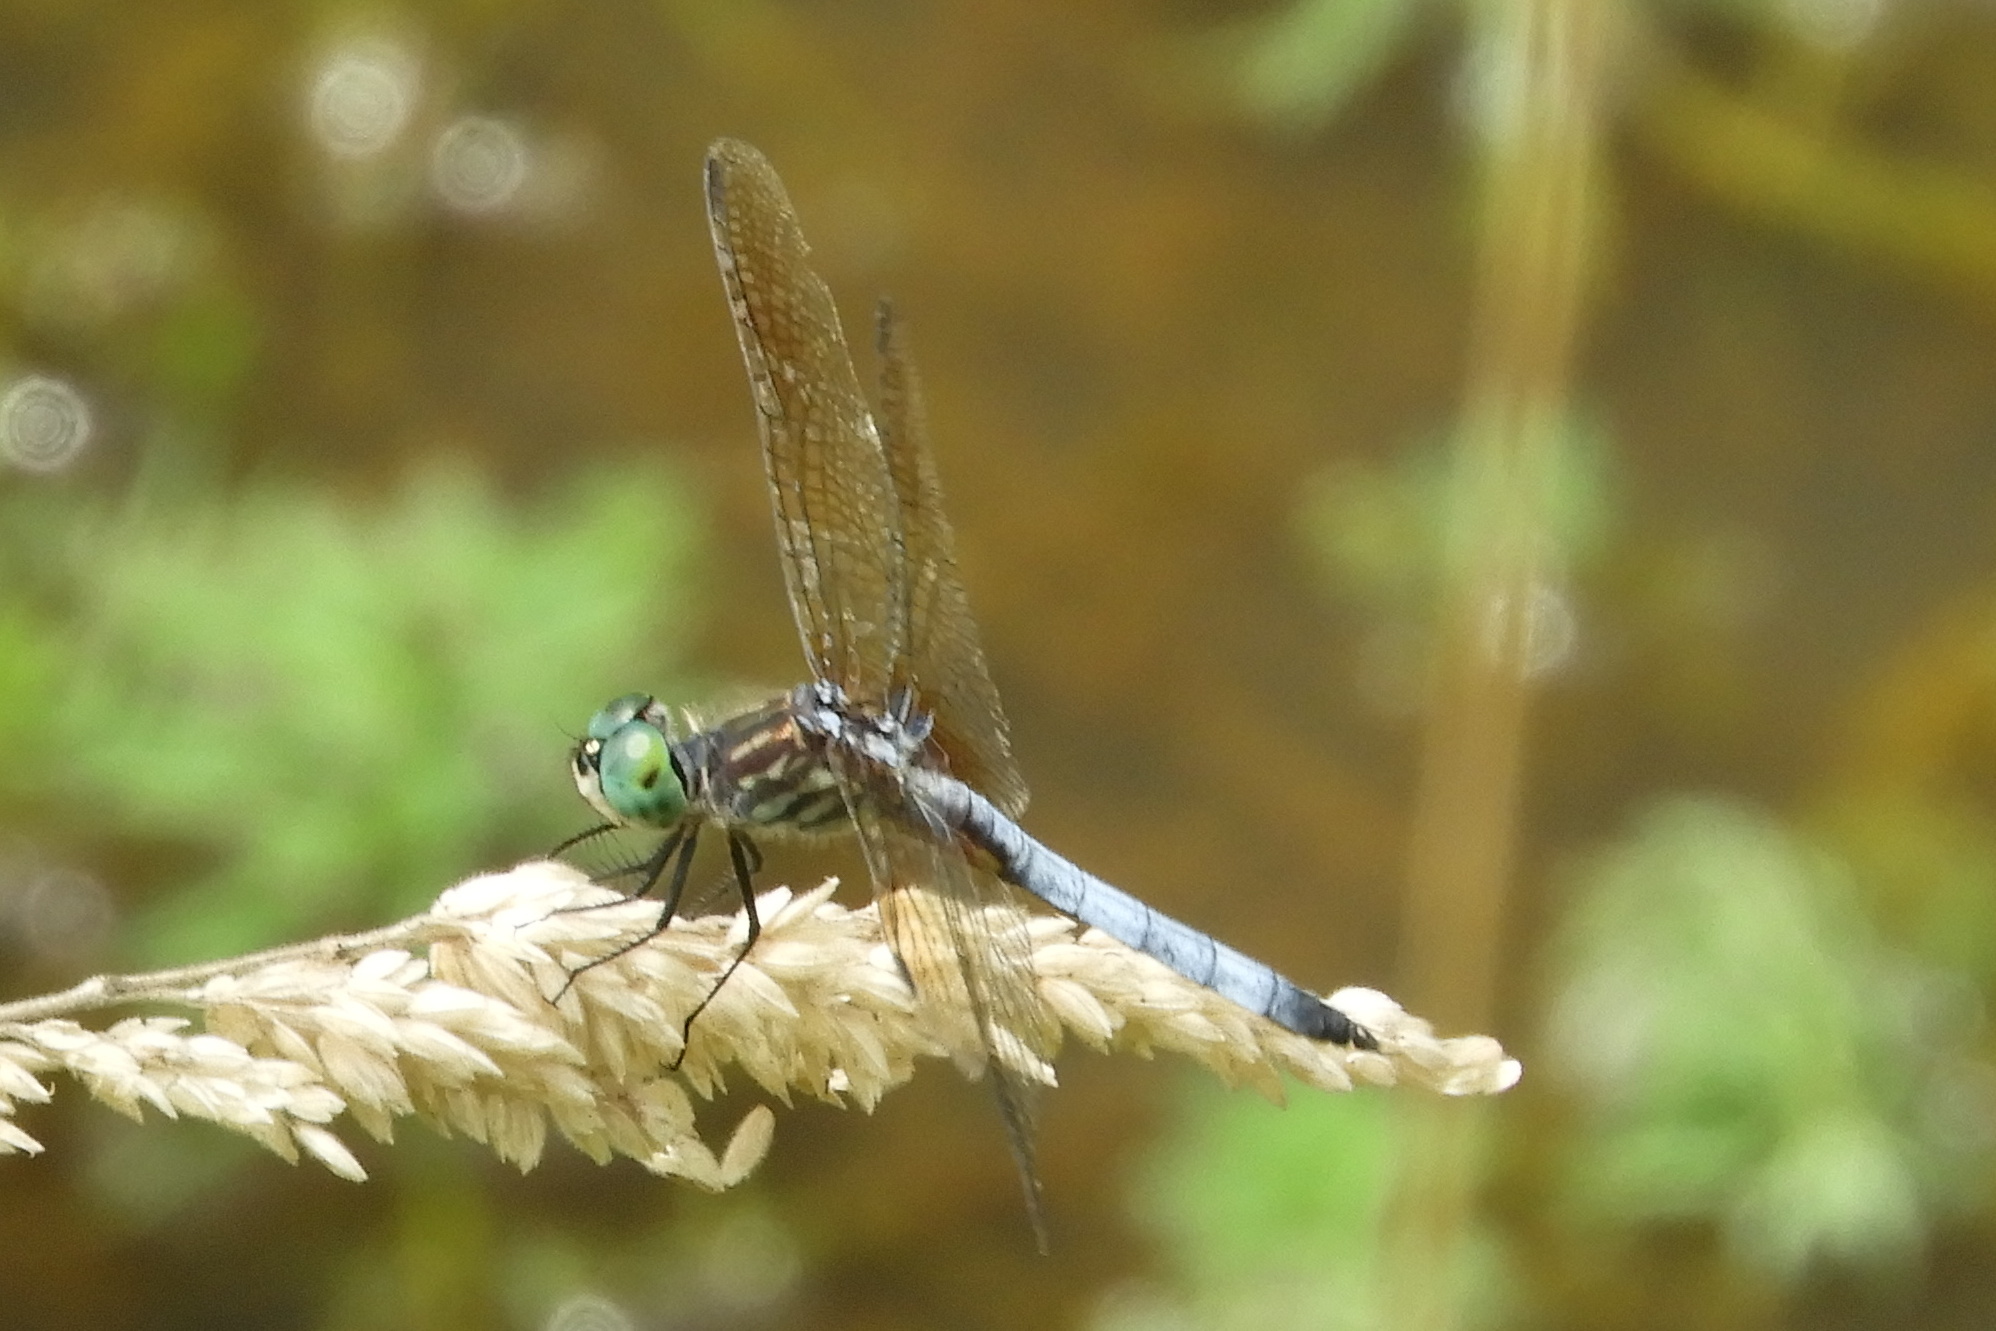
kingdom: Animalia
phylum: Arthropoda
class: Insecta
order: Odonata
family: Libellulidae
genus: Pachydiplax
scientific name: Pachydiplax longipennis
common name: Blue dasher
